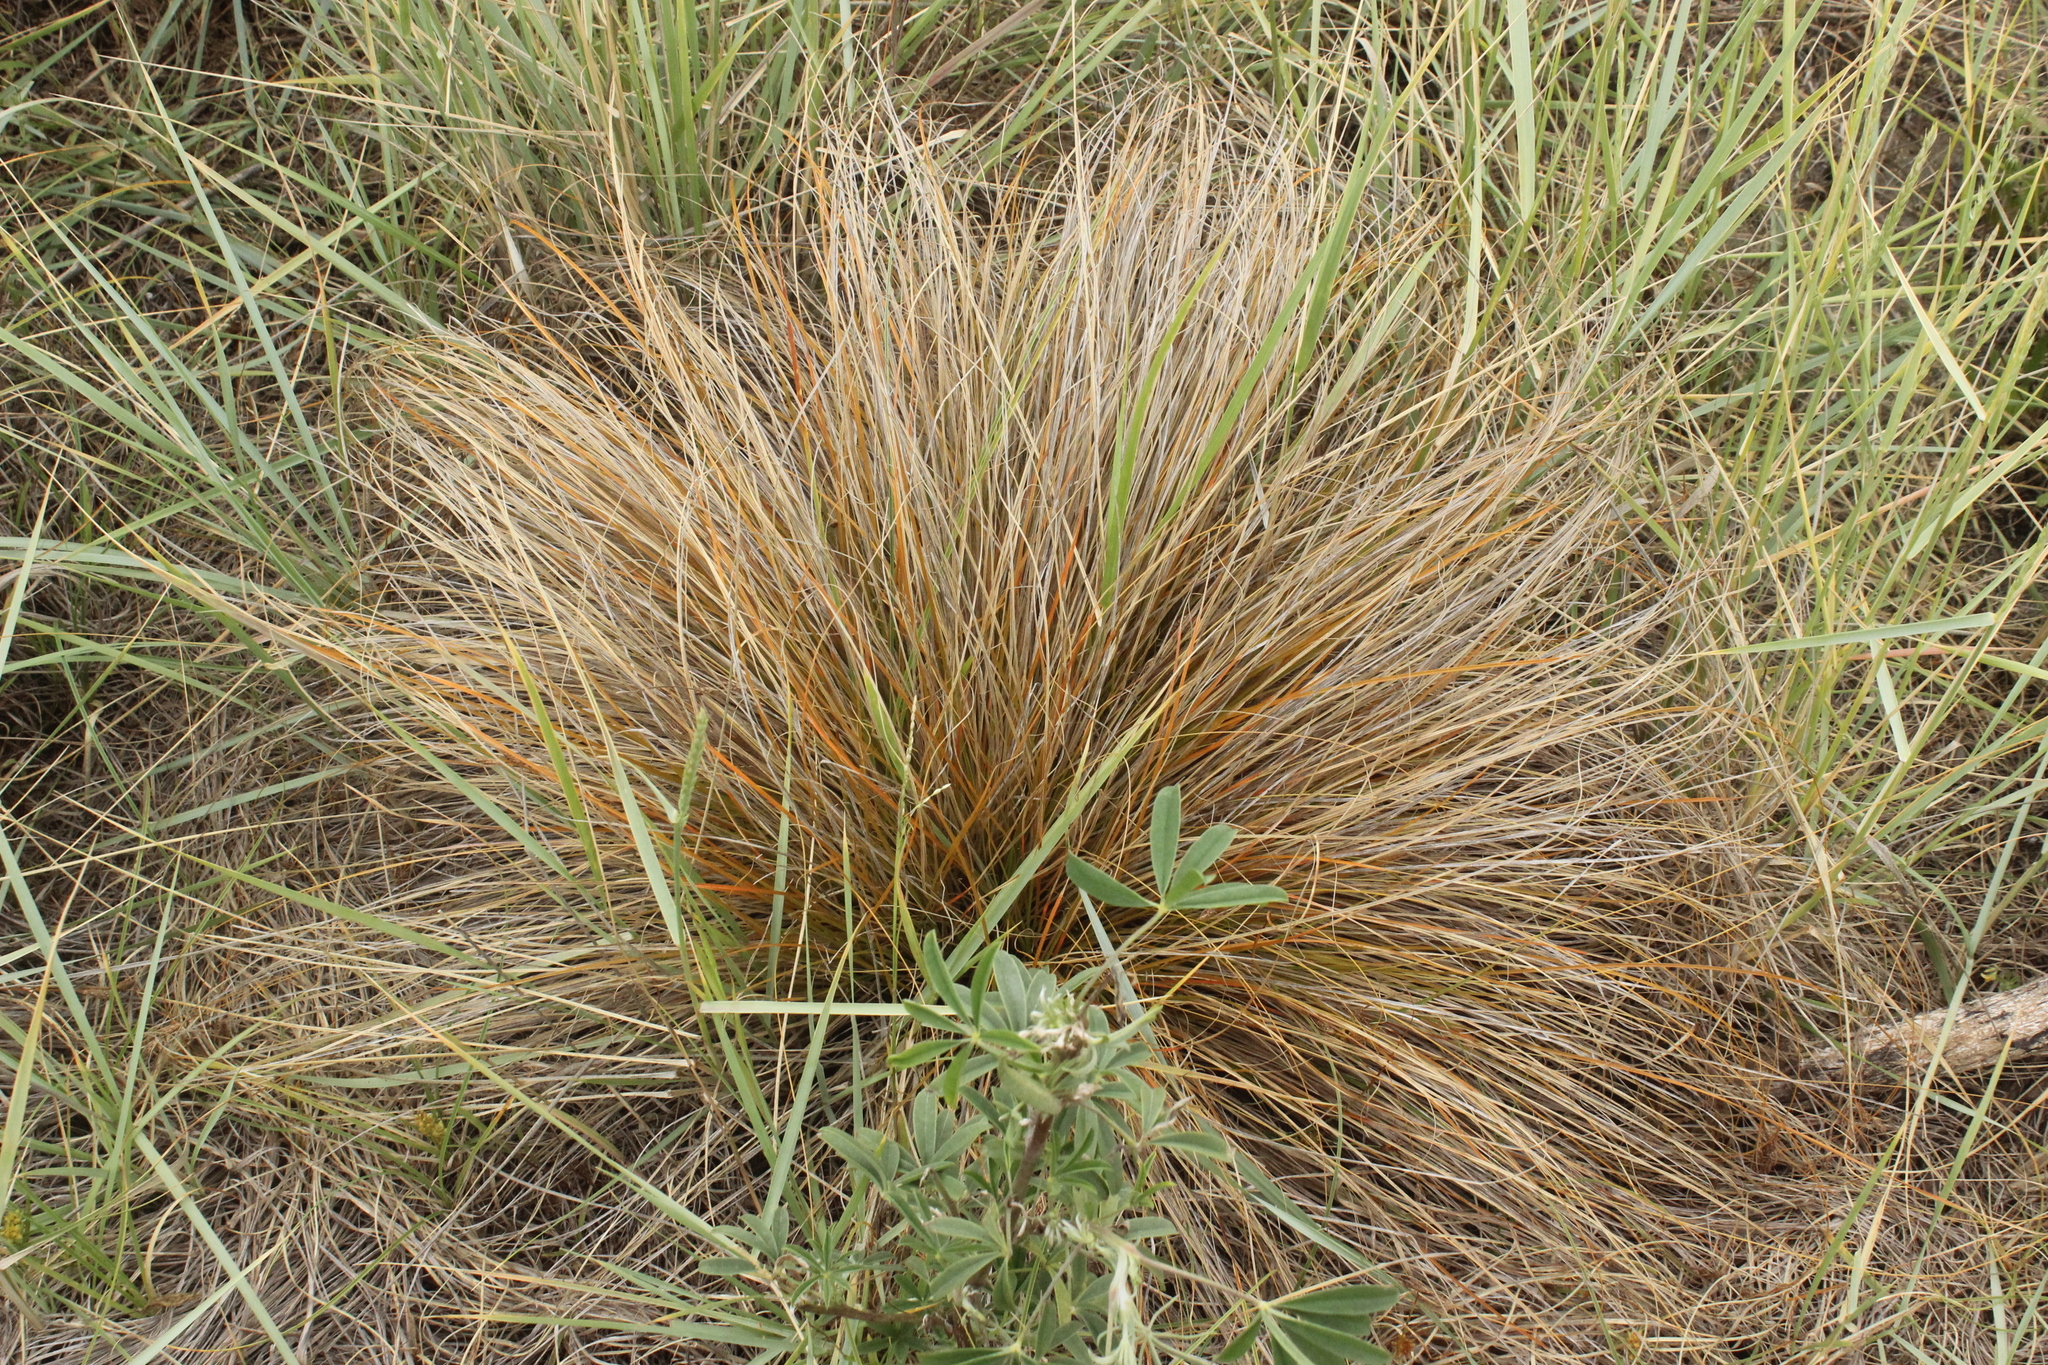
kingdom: Plantae
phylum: Tracheophyta
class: Liliopsida
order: Poales
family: Cyperaceae
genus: Carex
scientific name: Carex testacea
